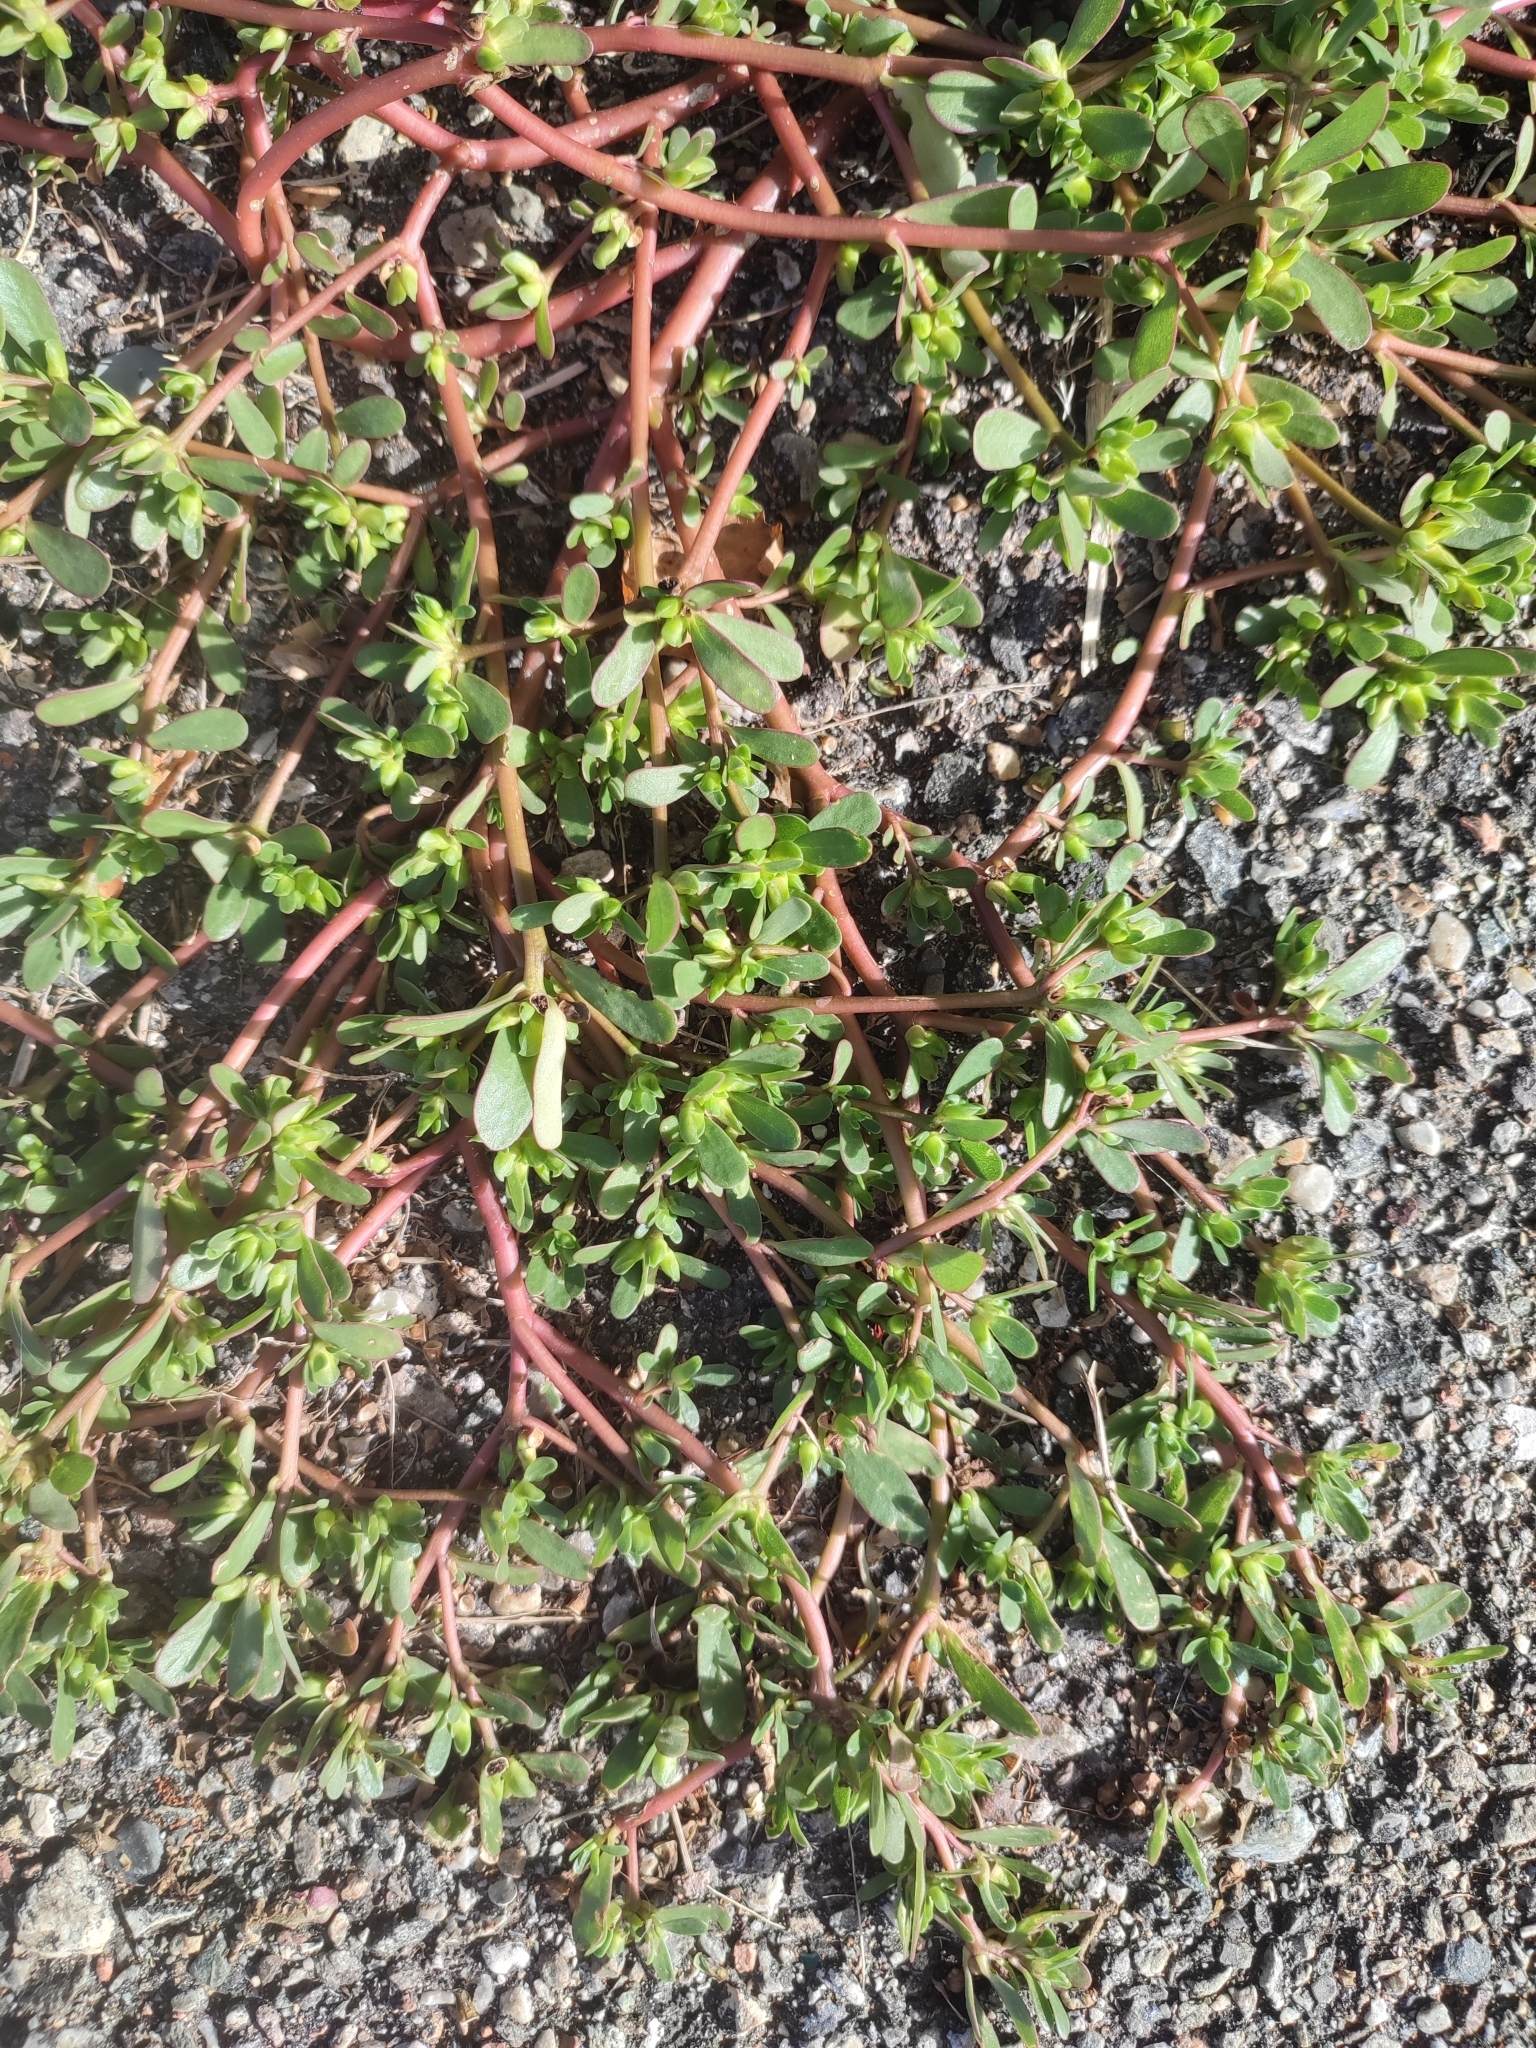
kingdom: Plantae
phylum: Tracheophyta
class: Magnoliopsida
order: Caryophyllales
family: Portulacaceae
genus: Portulaca
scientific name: Portulaca oleracea
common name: Common purslane
